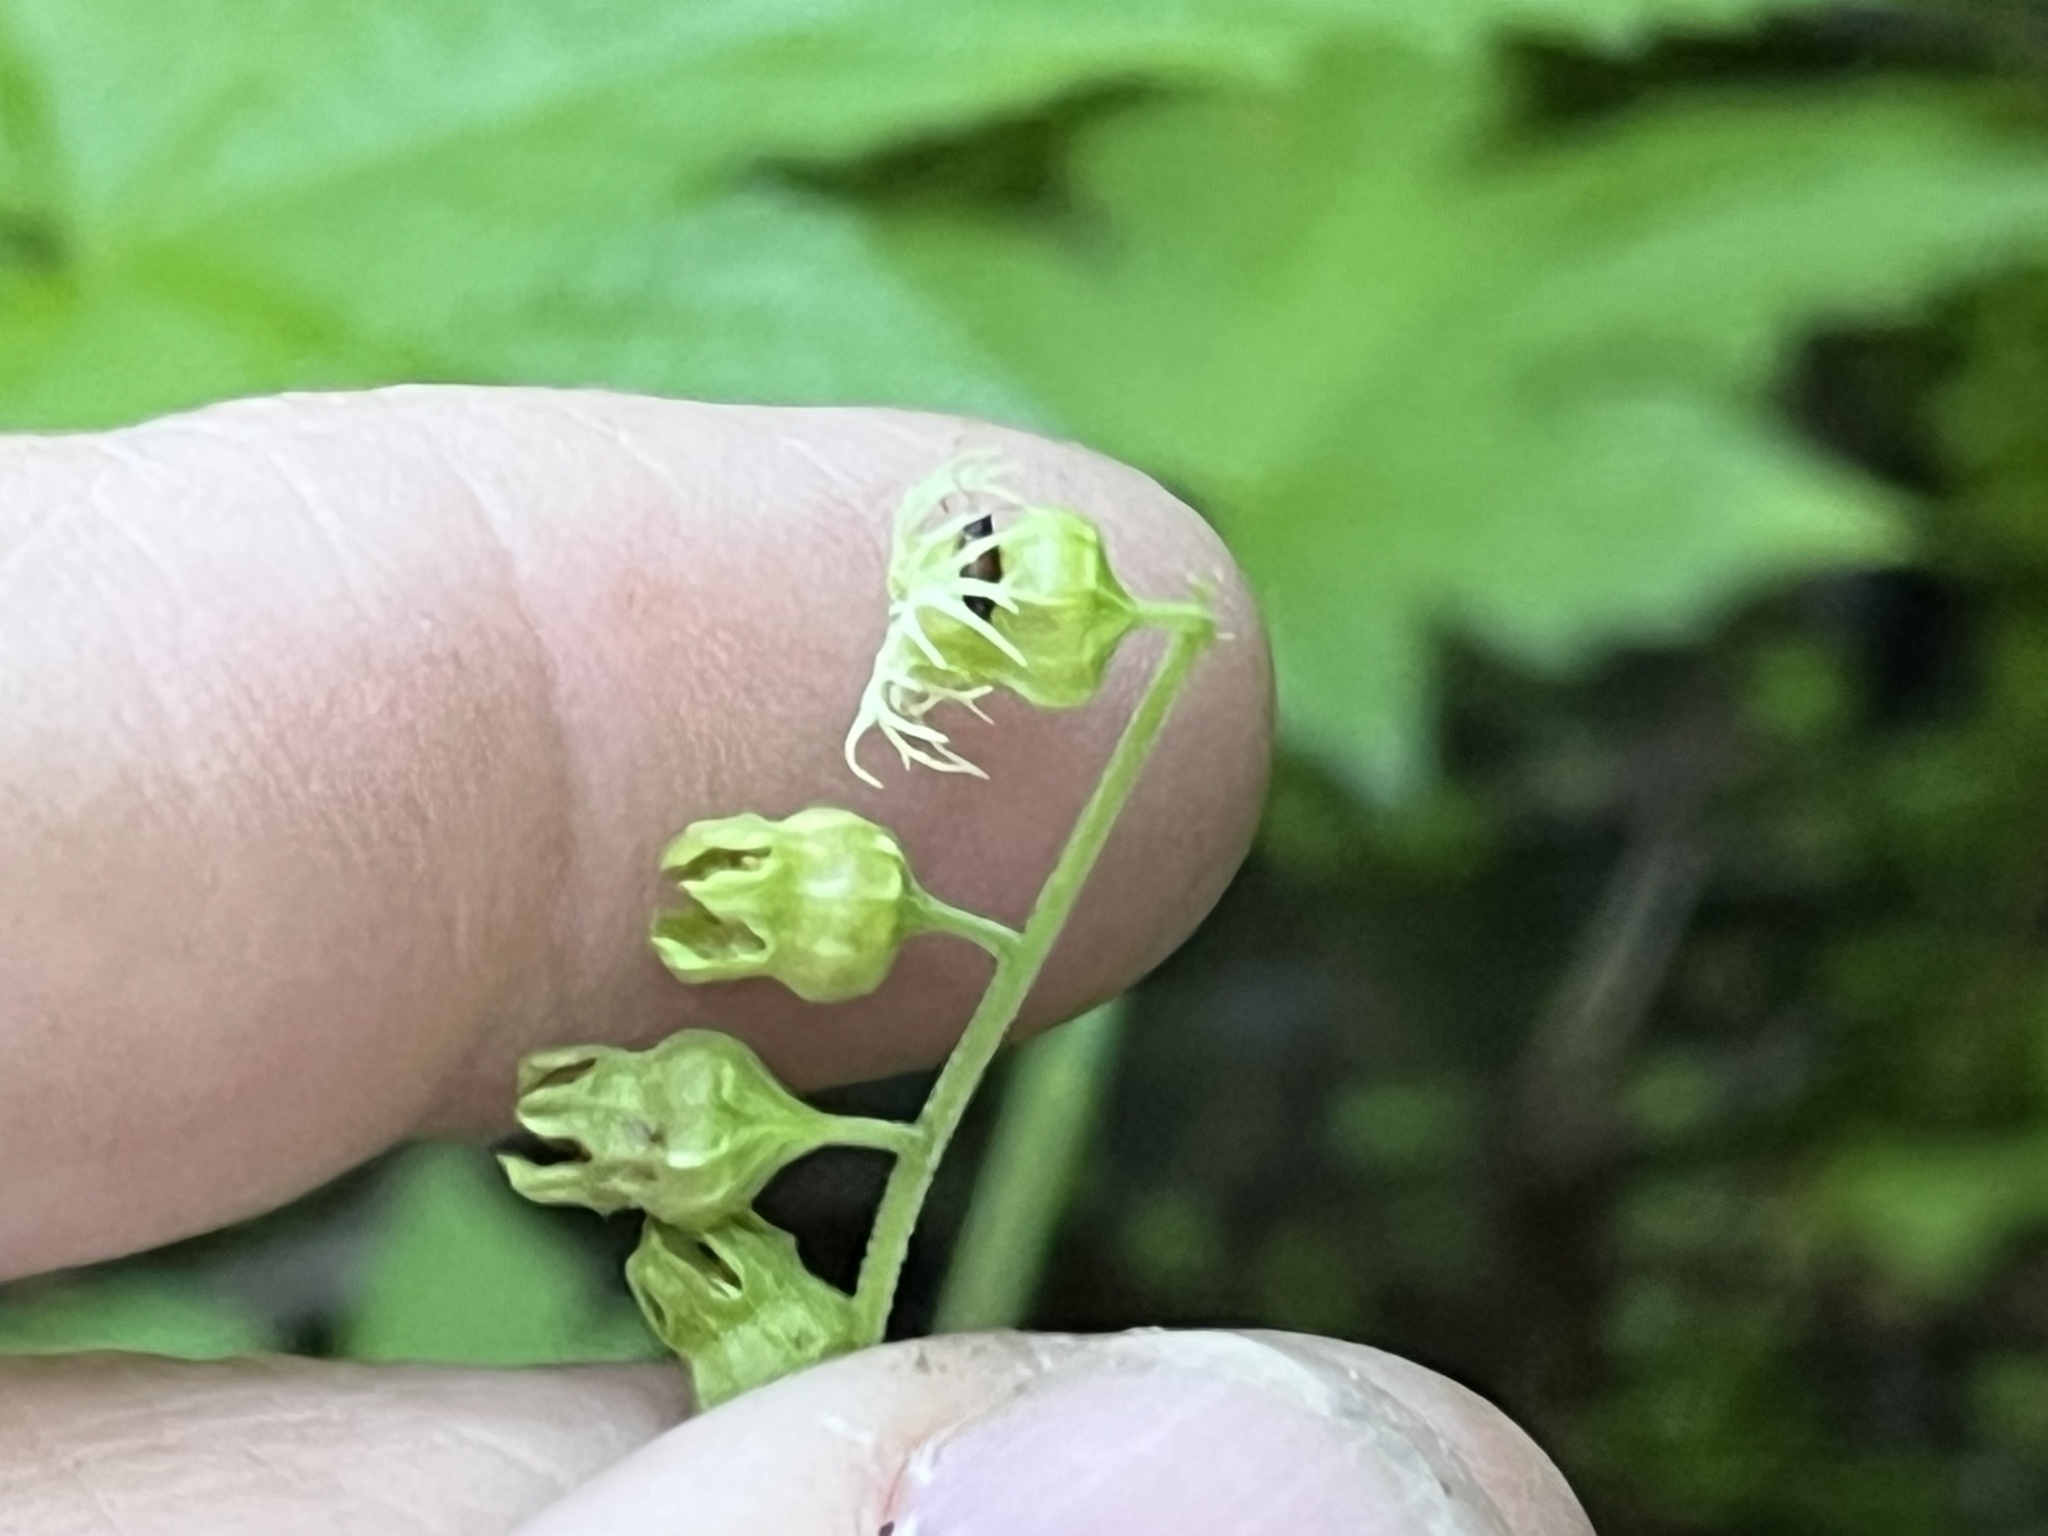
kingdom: Plantae
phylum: Tracheophyta
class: Magnoliopsida
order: Saxifragales
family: Saxifragaceae
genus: Tellima
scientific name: Tellima grandiflora
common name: Fringecups
